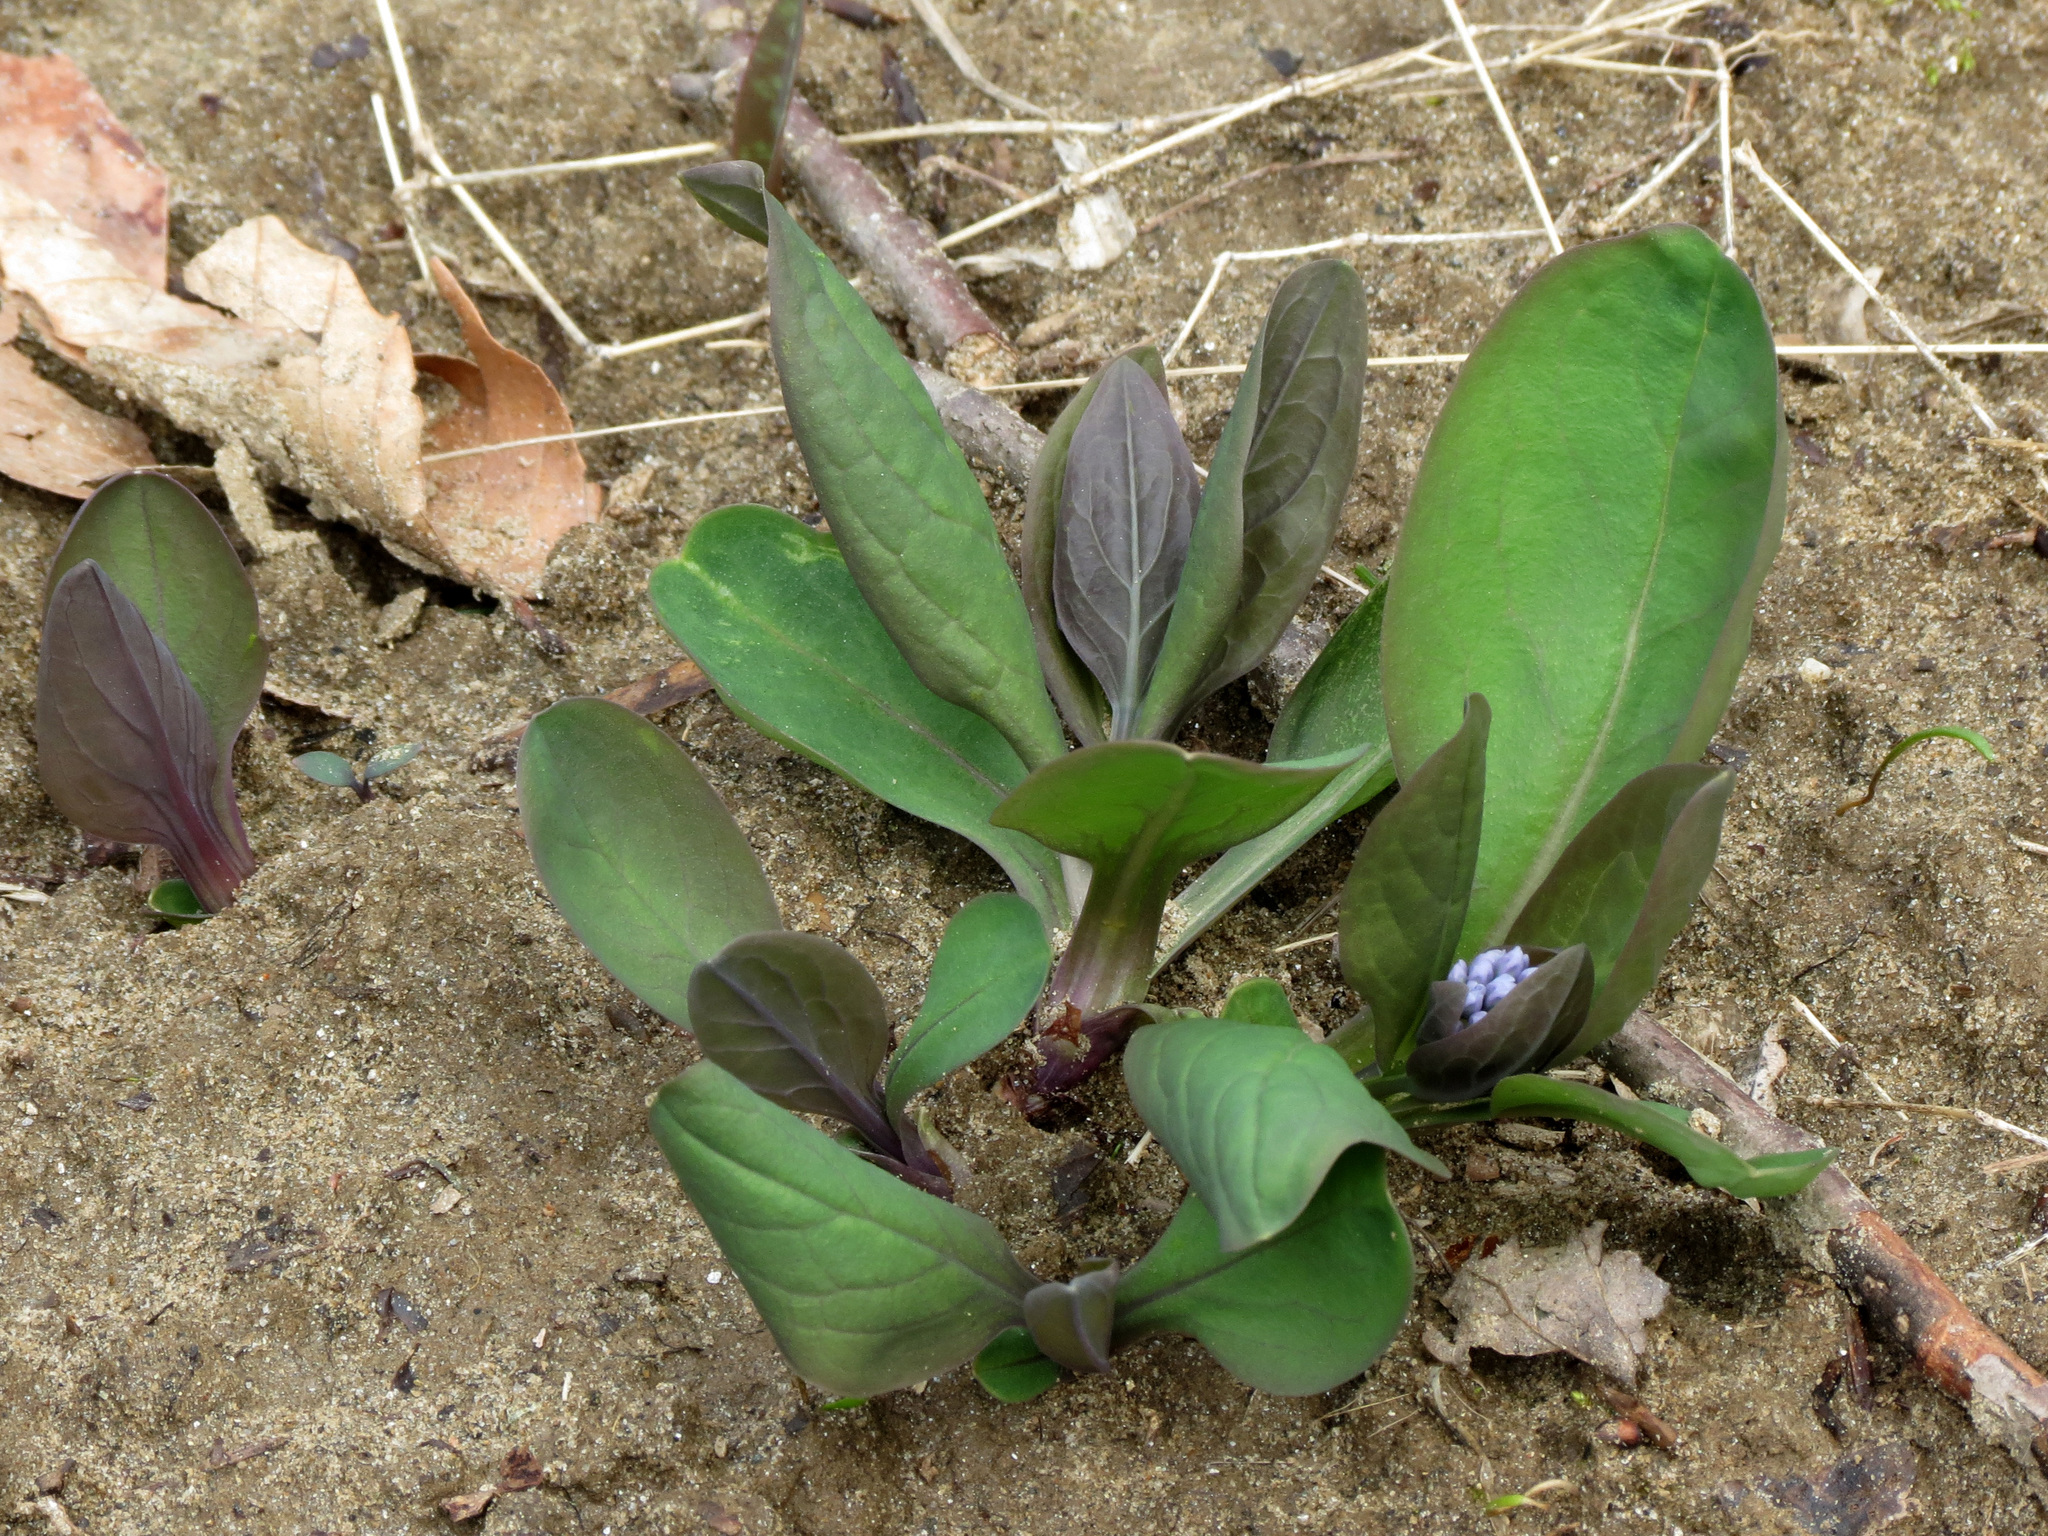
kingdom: Plantae
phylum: Tracheophyta
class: Magnoliopsida
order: Boraginales
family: Boraginaceae
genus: Mertensia
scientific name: Mertensia virginica
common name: Virginia bluebells
